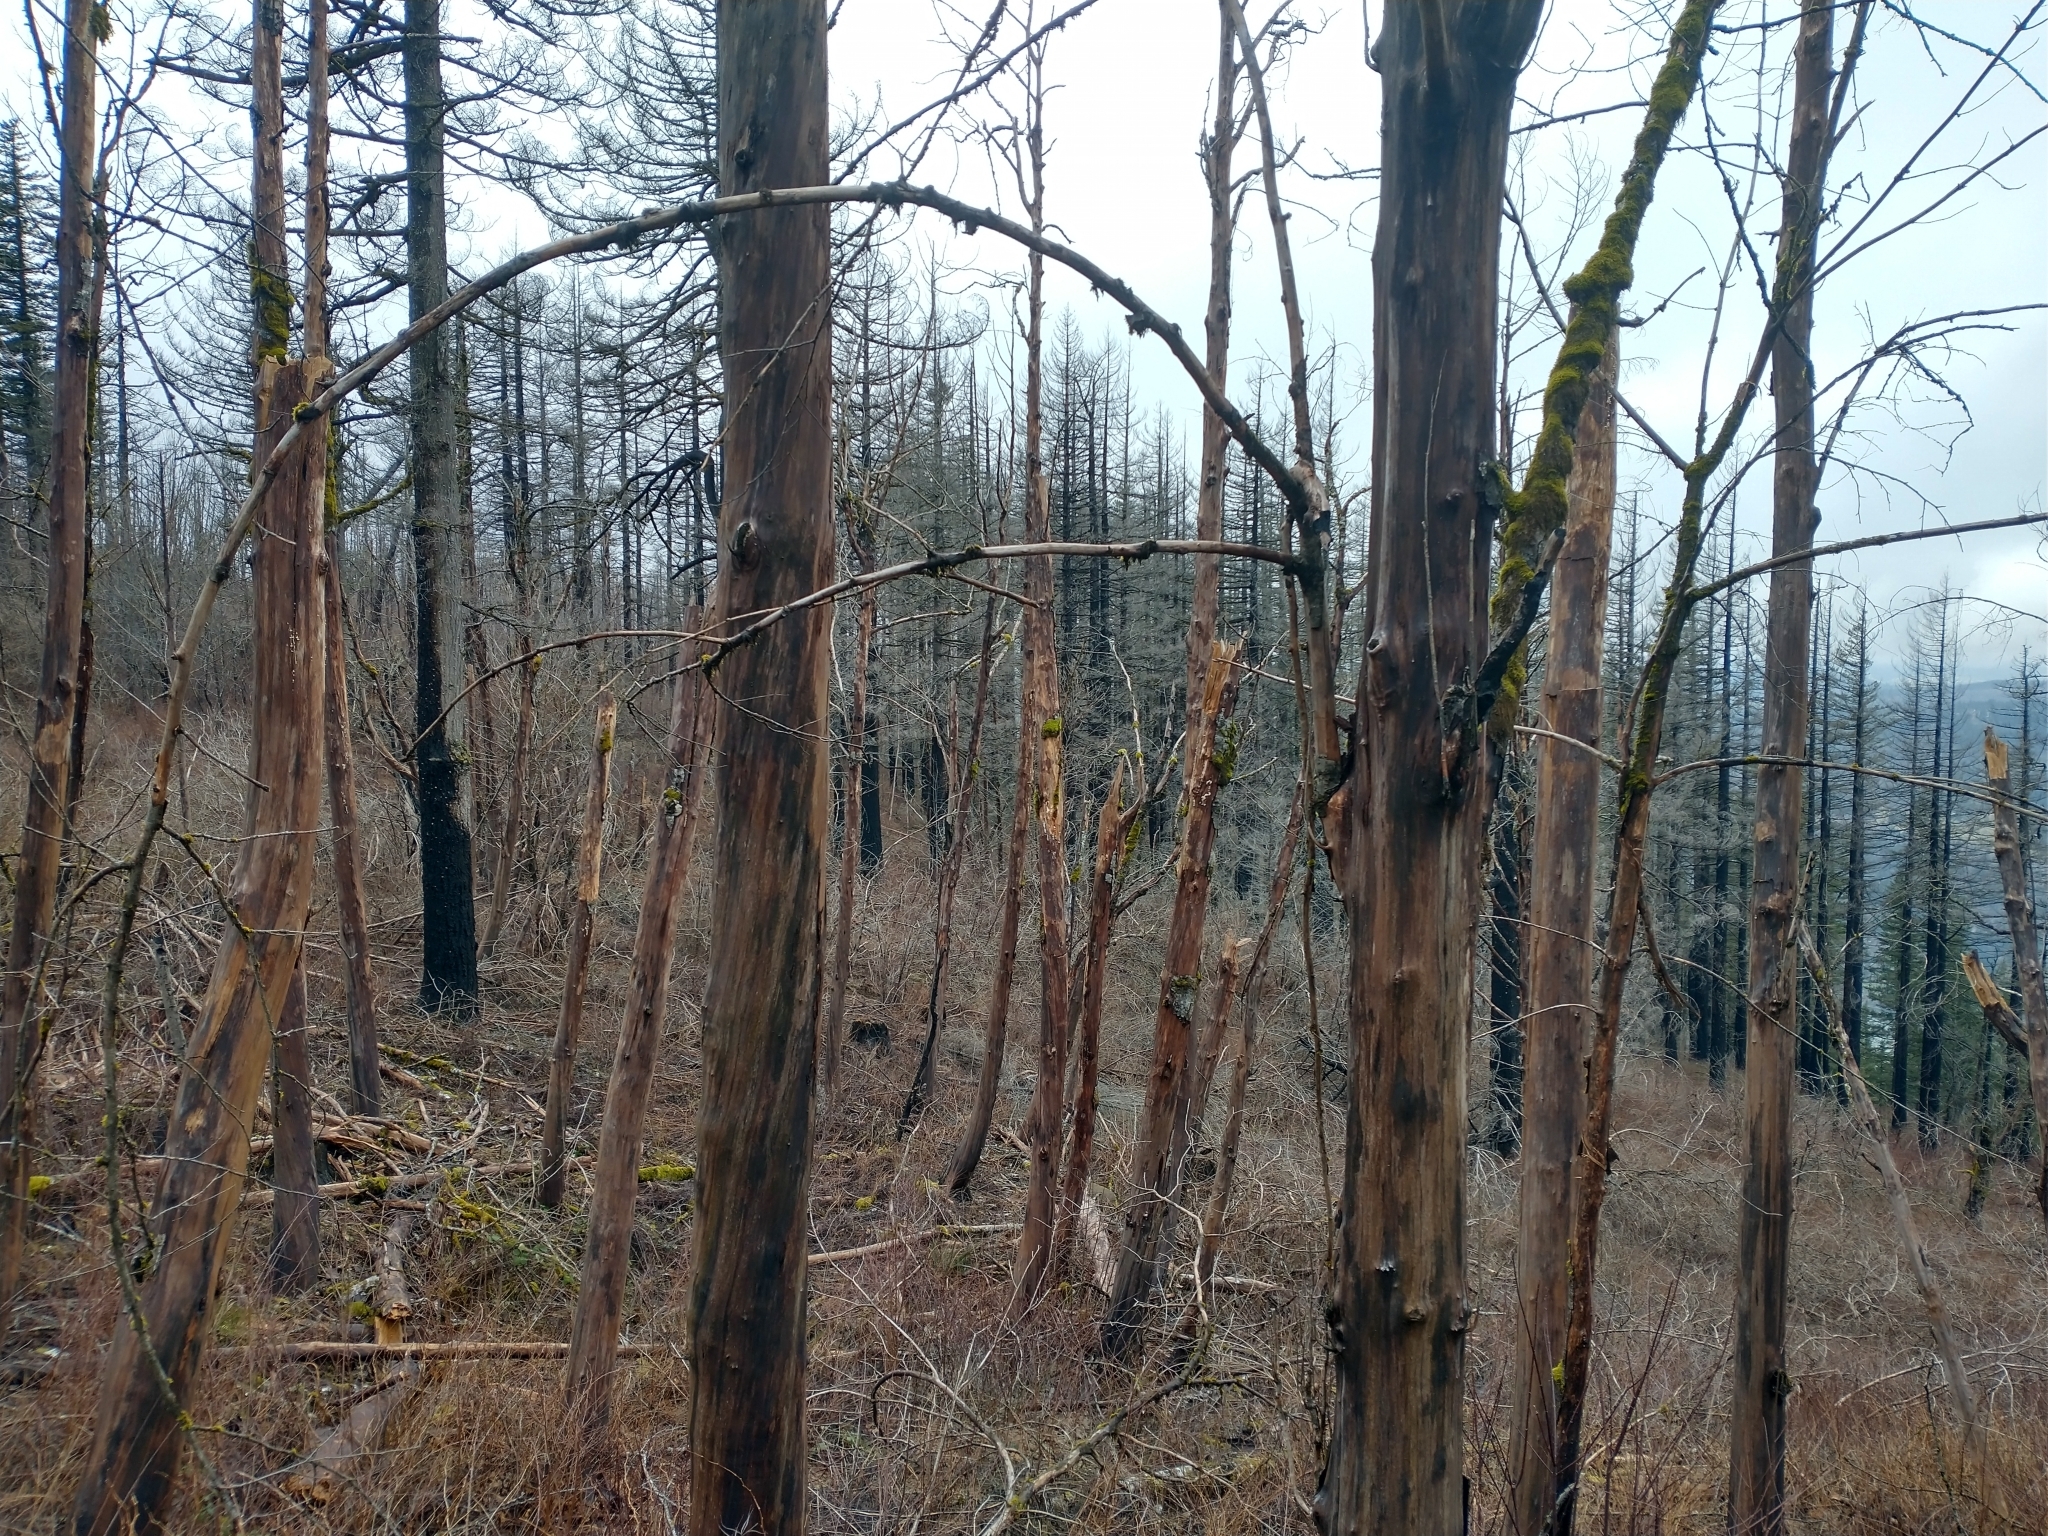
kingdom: Plantae
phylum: Tracheophyta
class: Magnoliopsida
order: Sapindales
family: Sapindaceae
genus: Acer
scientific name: Acer macrophyllum
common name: Oregon maple
